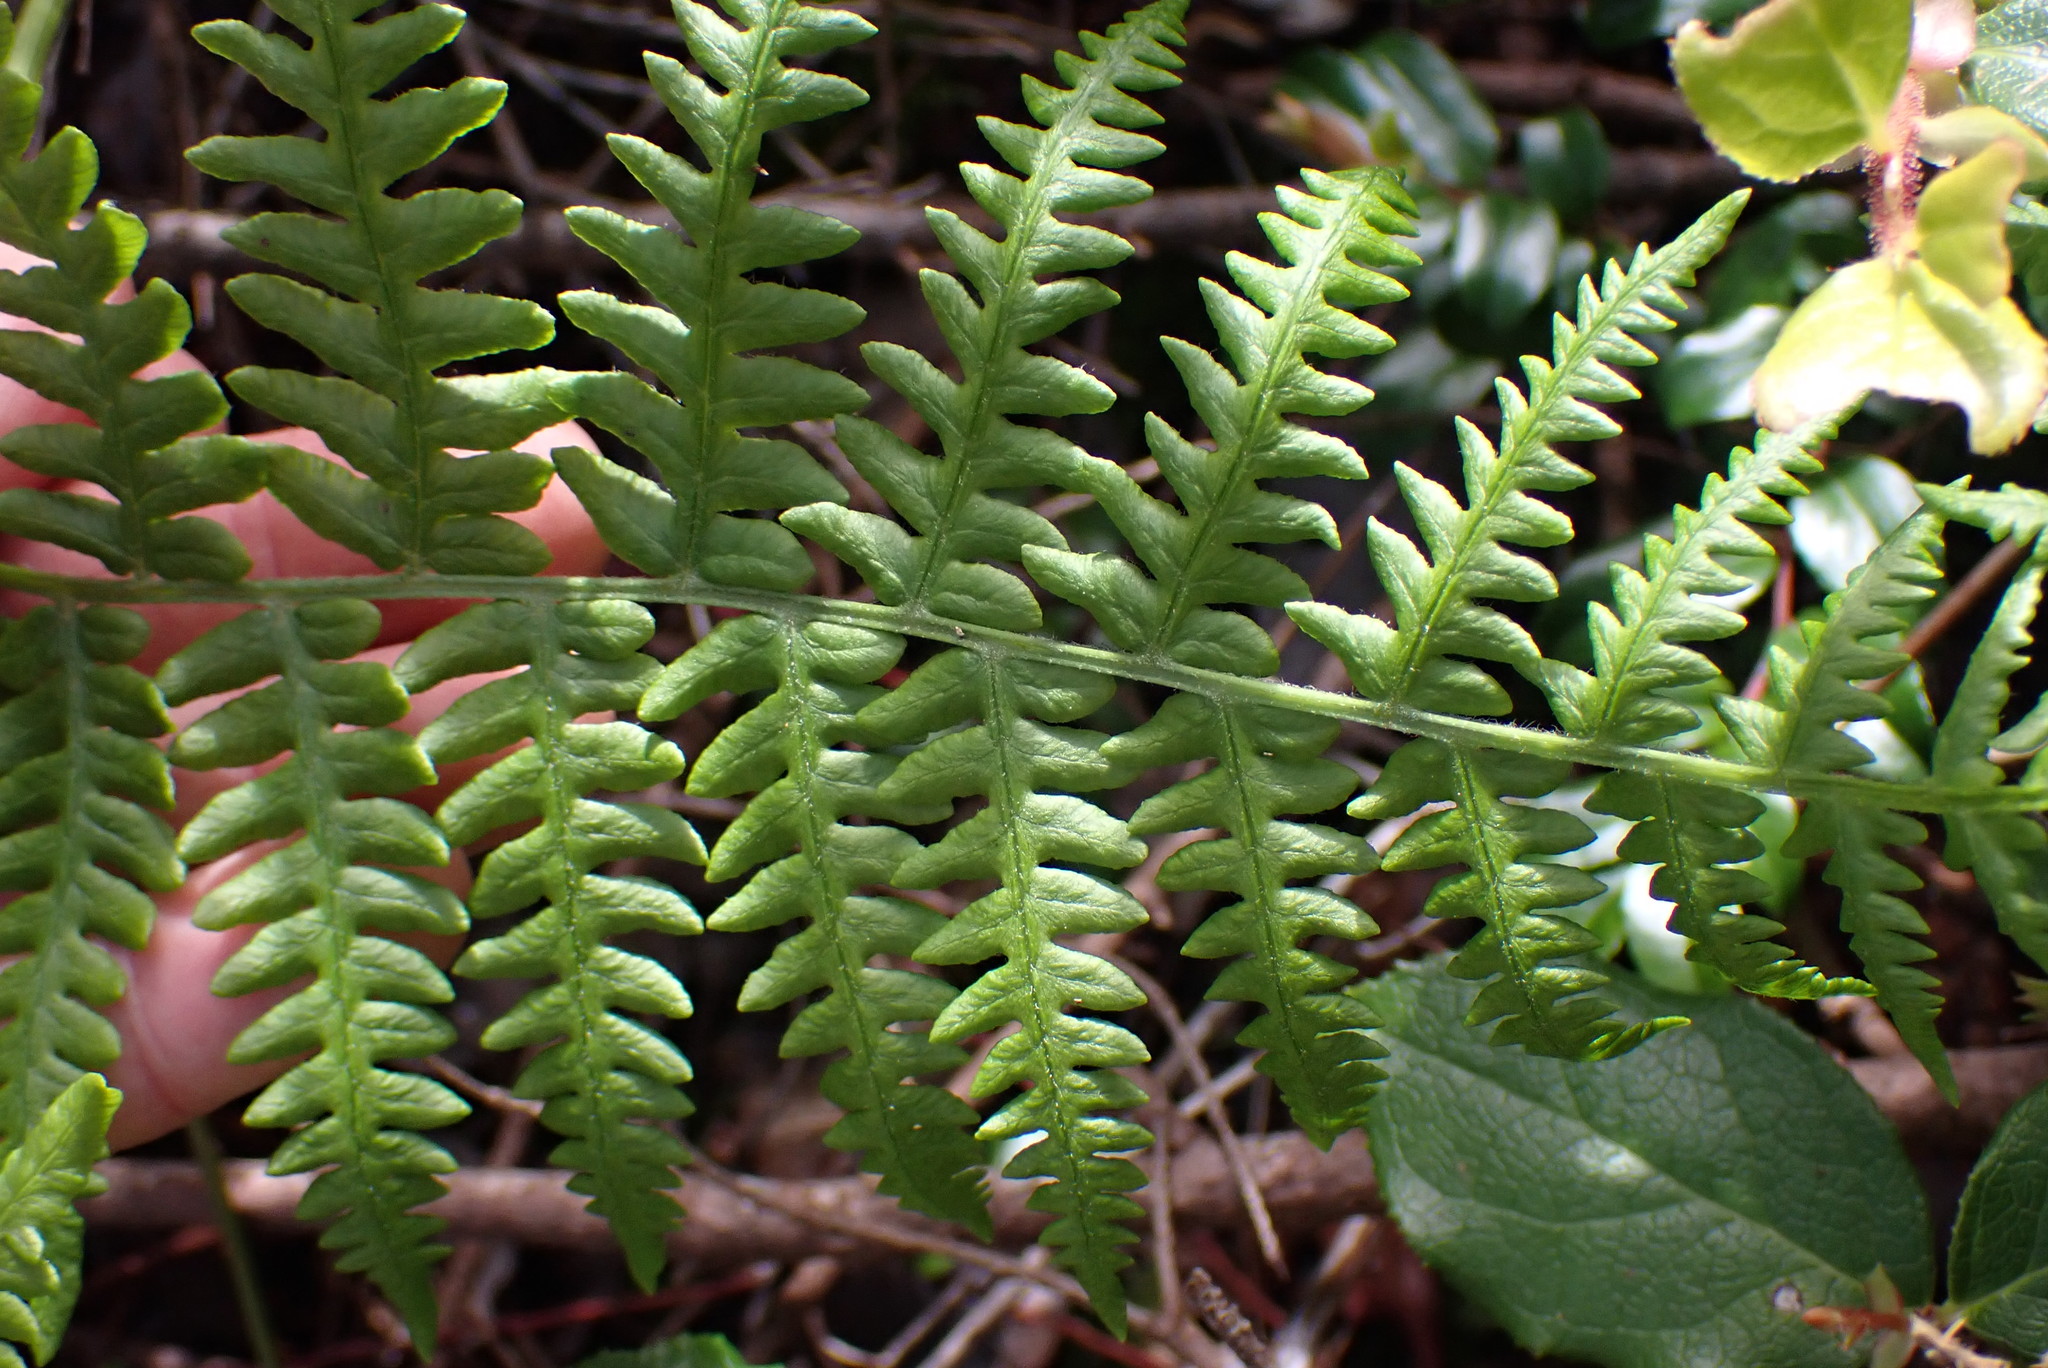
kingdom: Plantae
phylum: Tracheophyta
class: Polypodiopsida
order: Polypodiales
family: Dennstaedtiaceae
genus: Pteridium
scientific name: Pteridium aquilinum
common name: Bracken
